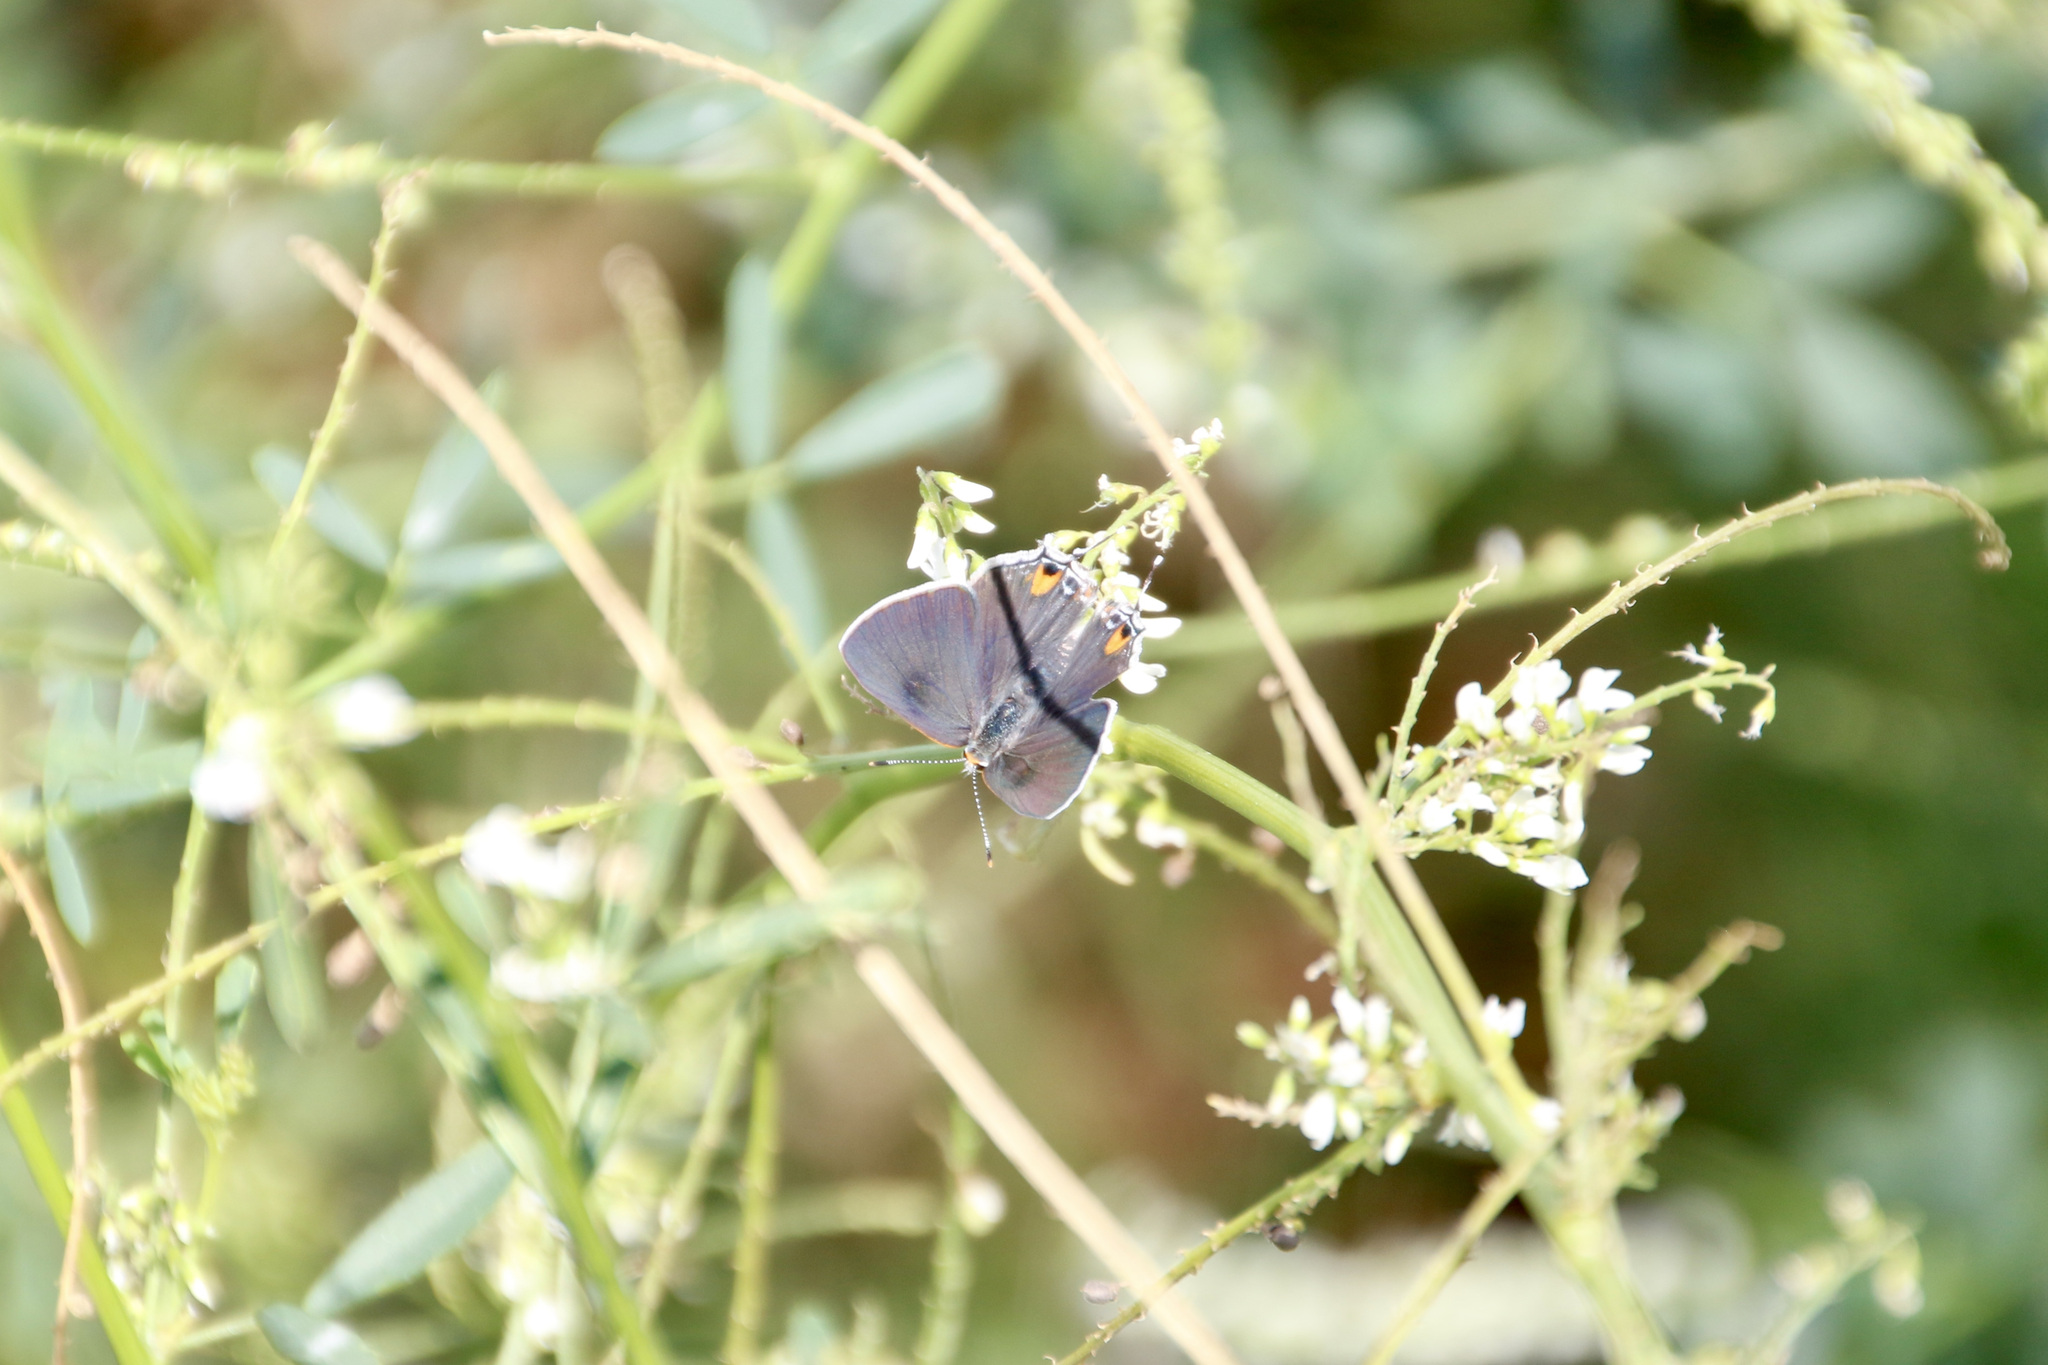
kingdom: Animalia
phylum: Arthropoda
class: Insecta
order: Lepidoptera
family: Lycaenidae
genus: Strymon
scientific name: Strymon melinus
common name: Gray hairstreak
